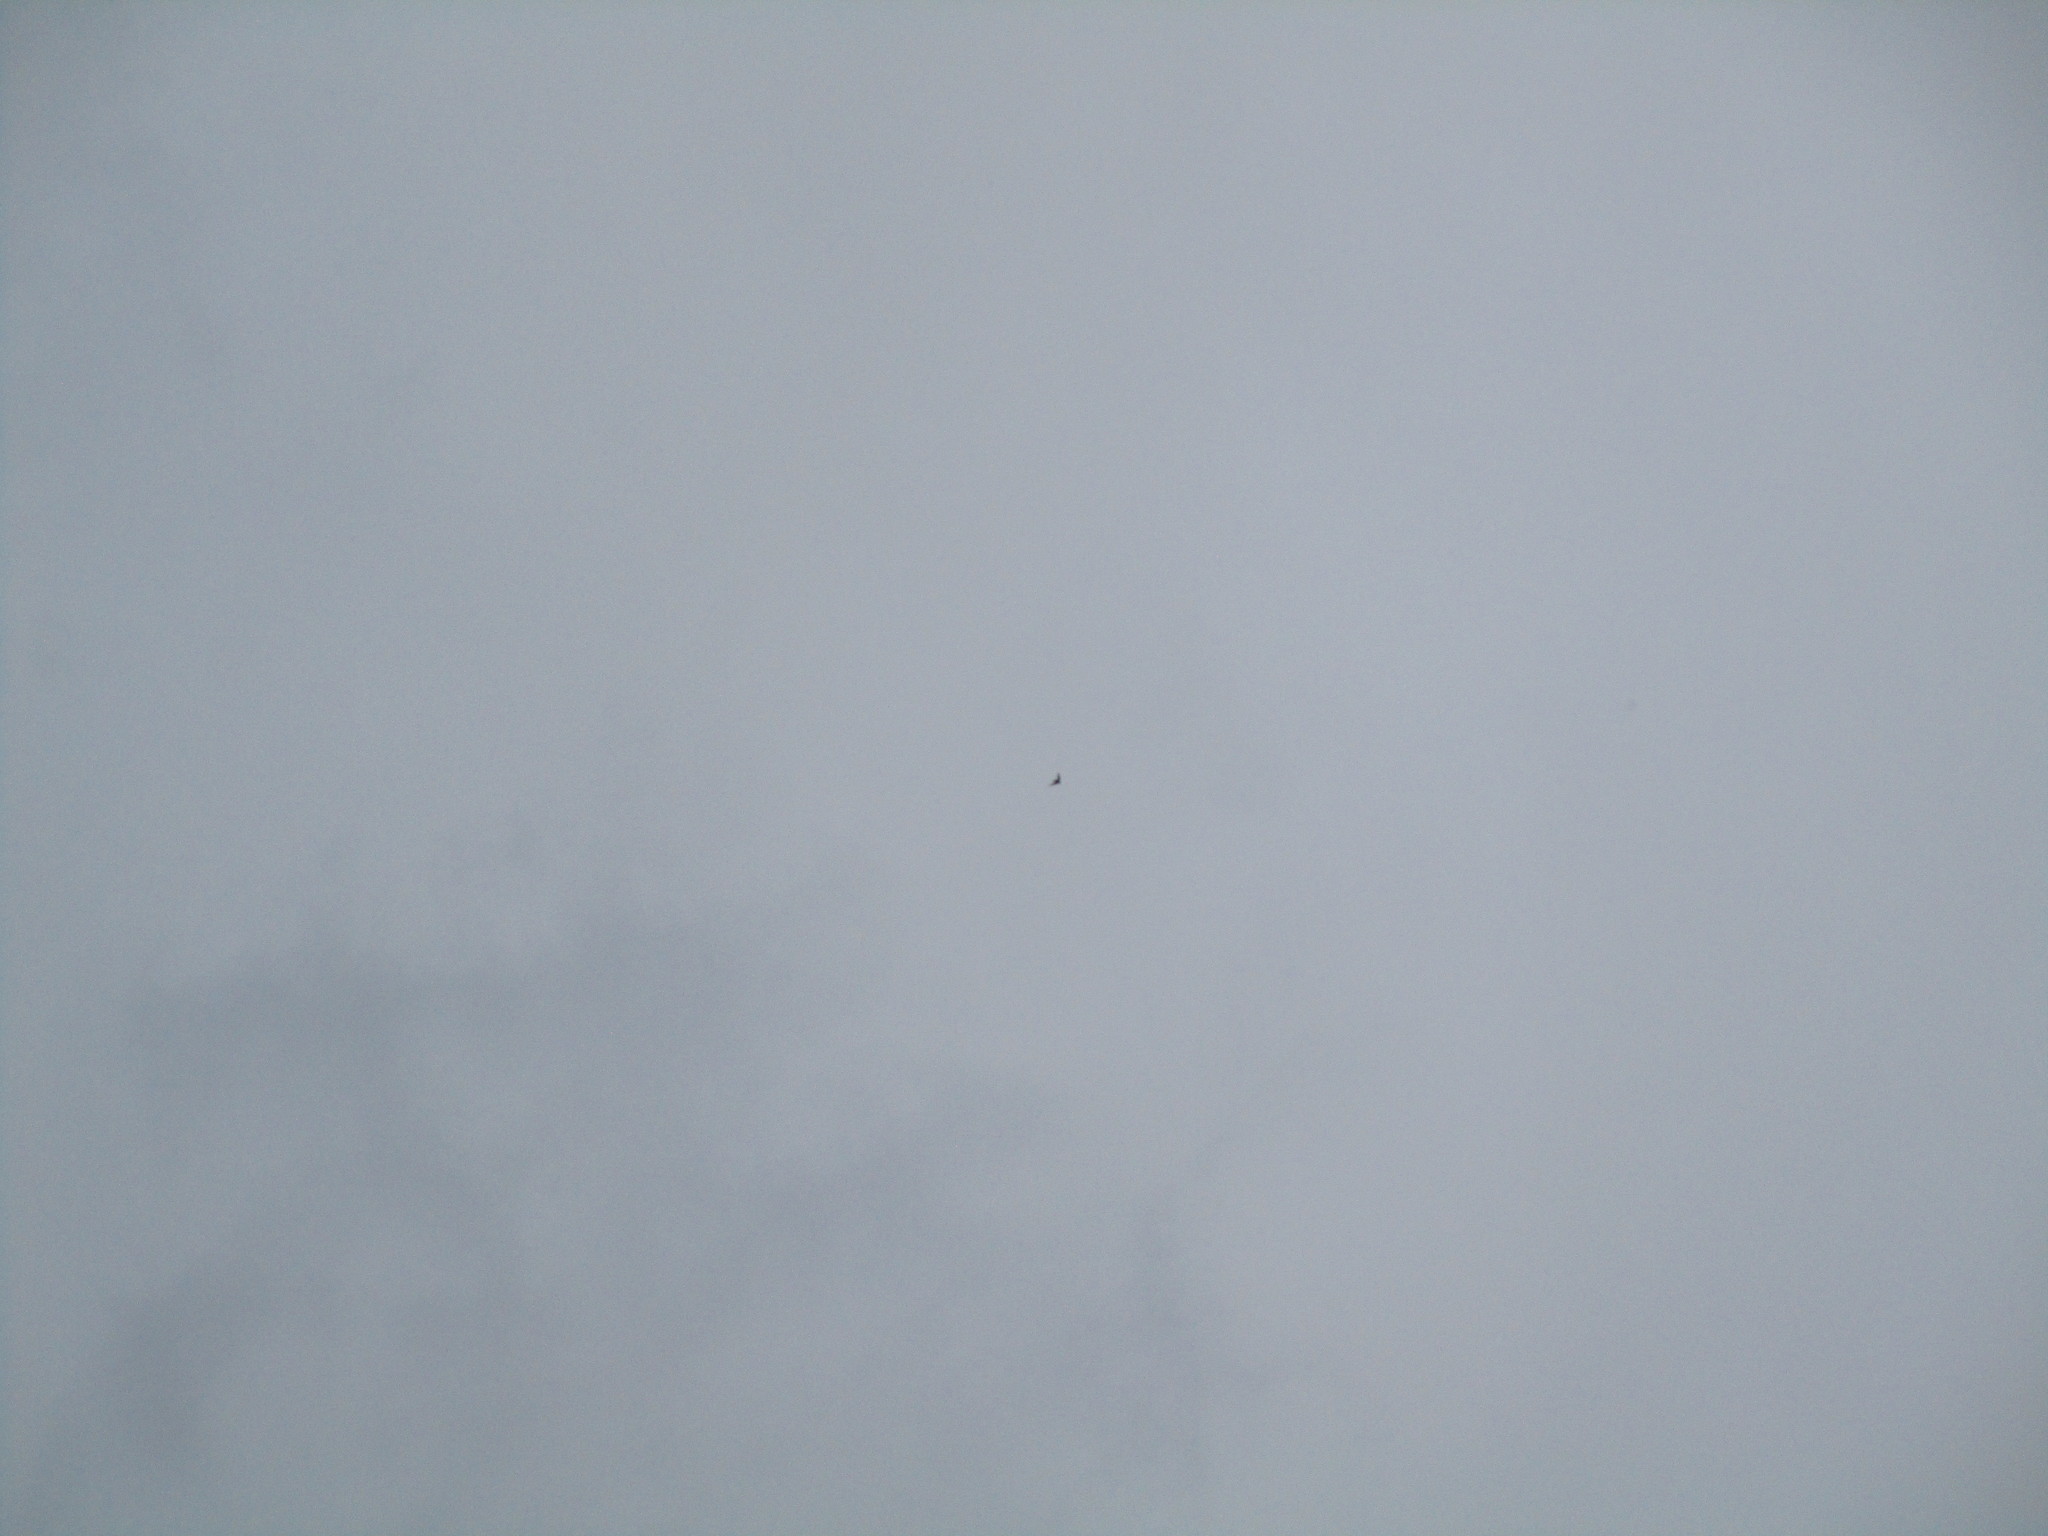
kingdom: Animalia
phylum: Chordata
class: Aves
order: Apodiformes
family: Apodidae
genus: Chaetura
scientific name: Chaetura pelagica
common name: Chimney swift
